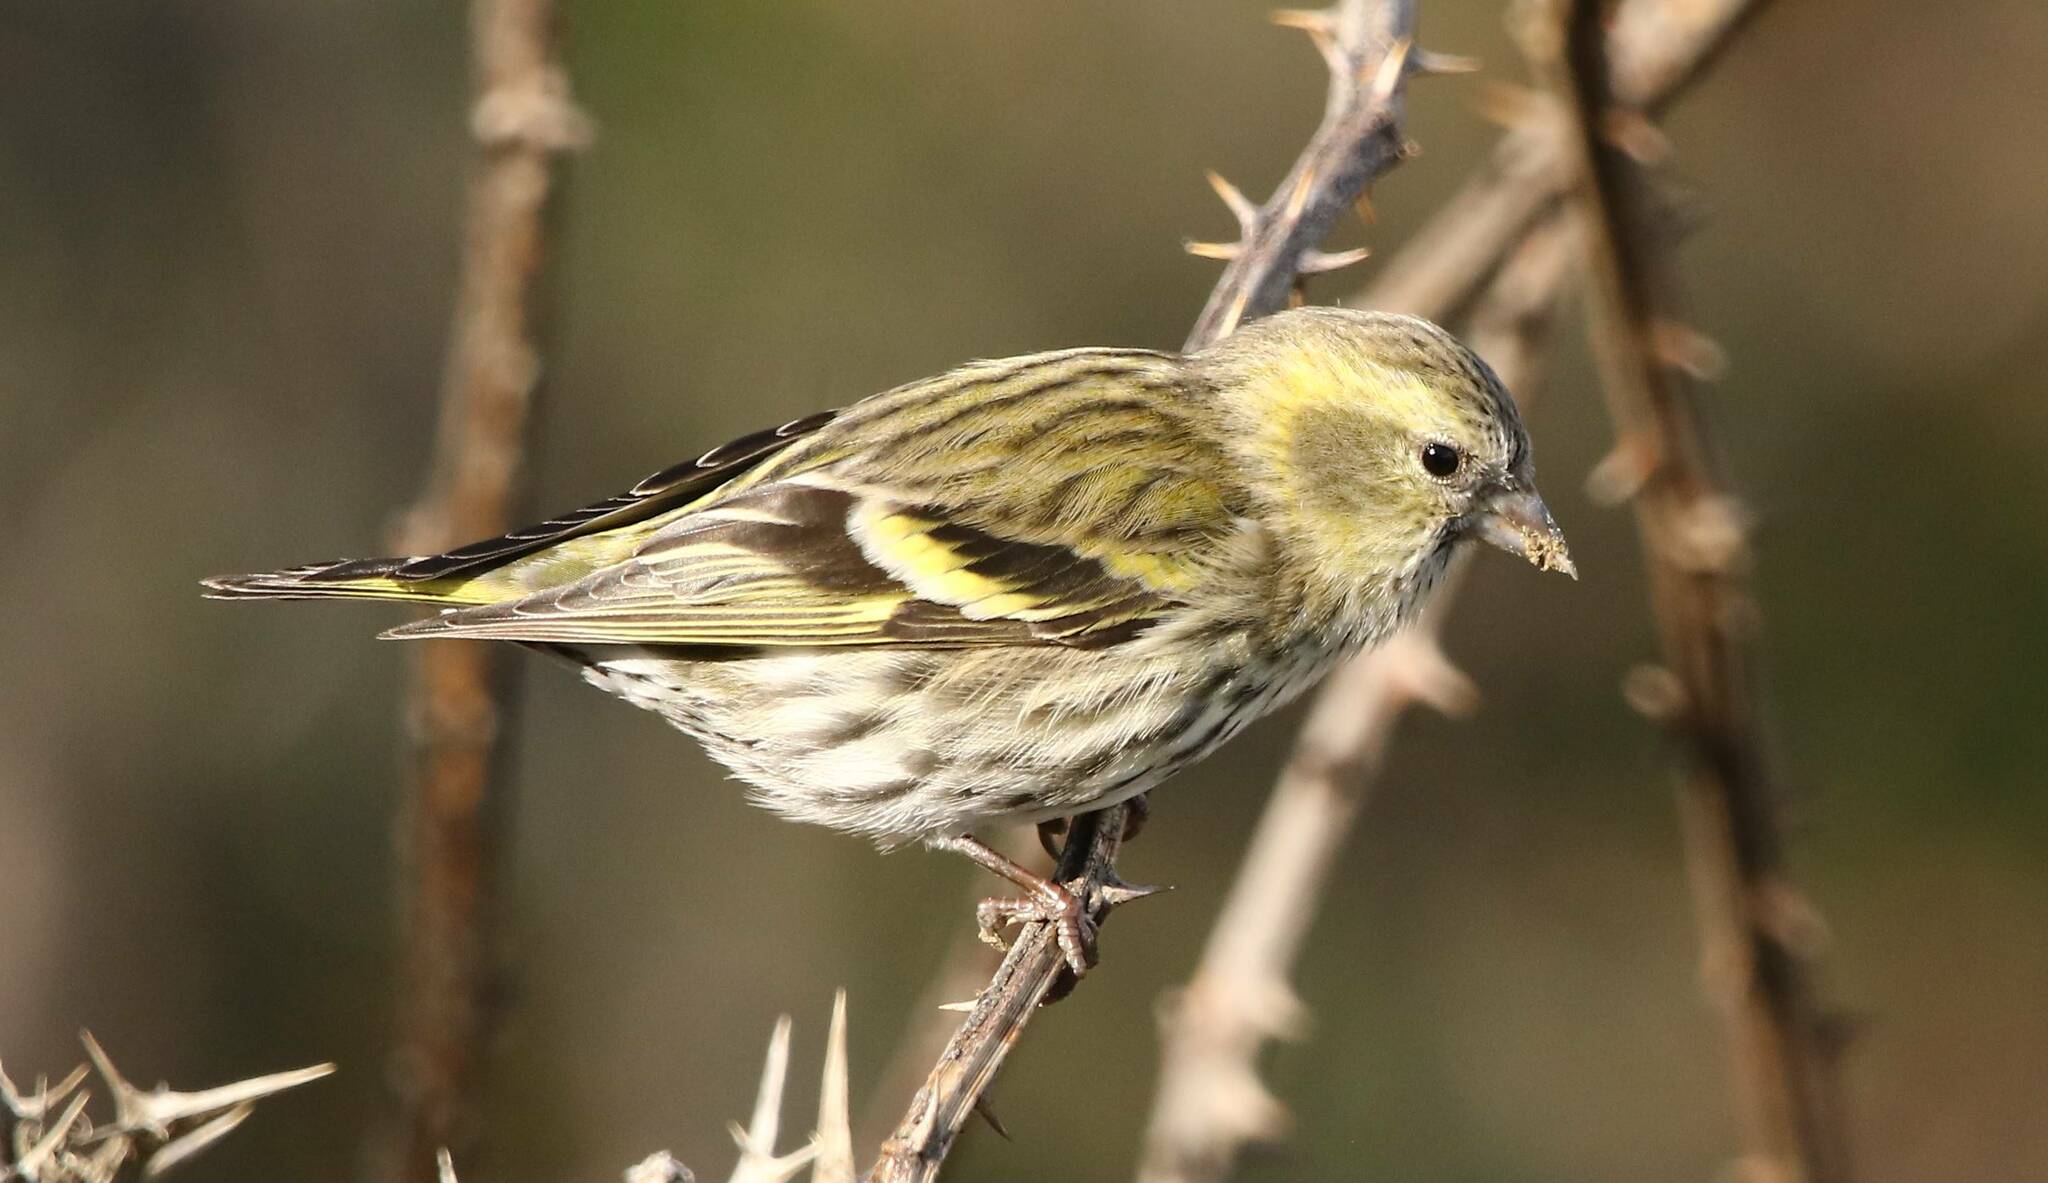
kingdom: Animalia
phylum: Chordata
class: Aves
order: Passeriformes
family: Fringillidae
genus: Spinus
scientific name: Spinus spinus
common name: Eurasian siskin
